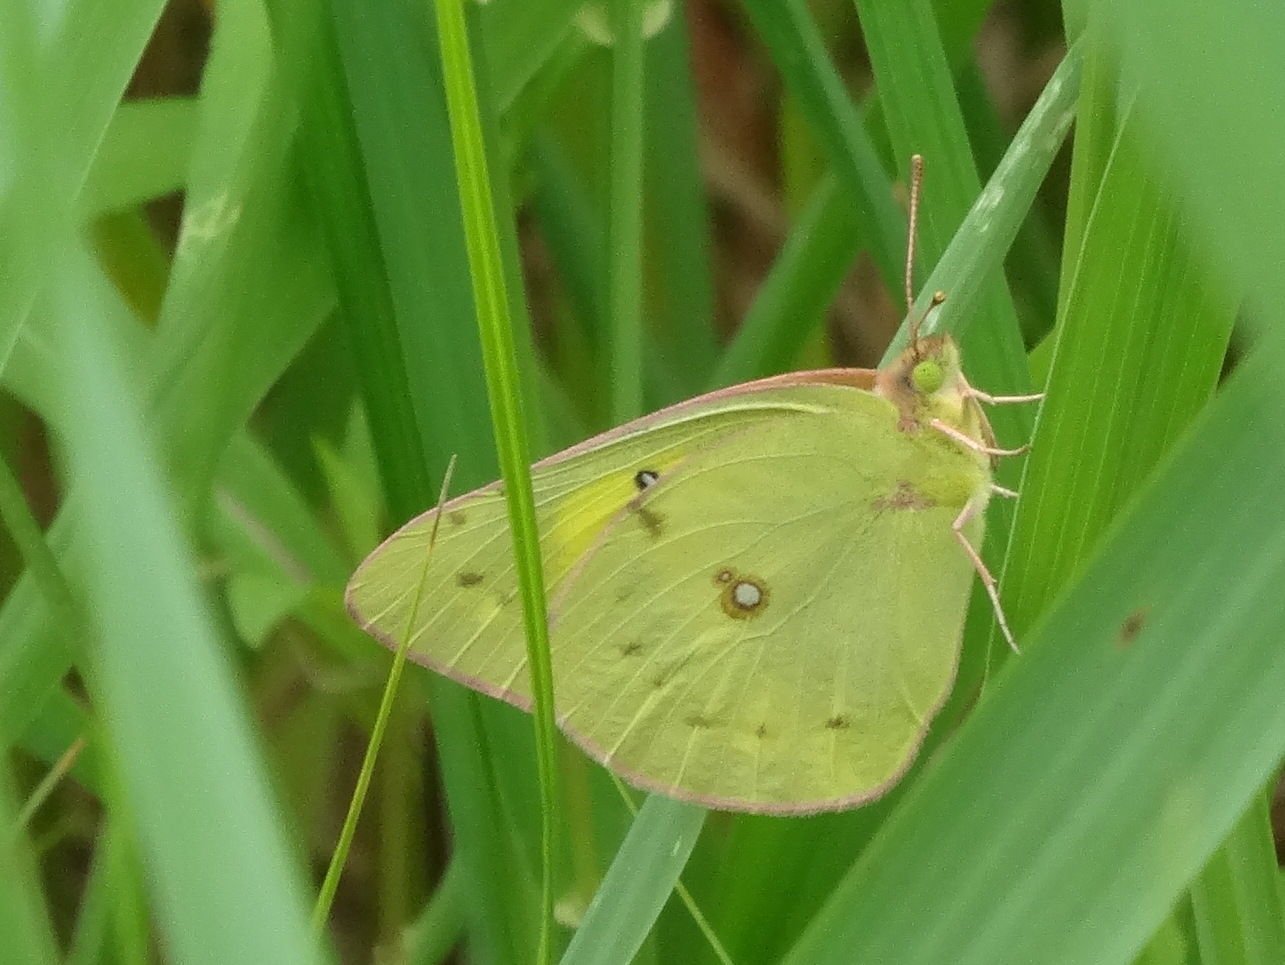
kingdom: Animalia
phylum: Arthropoda
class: Insecta
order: Lepidoptera
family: Pieridae
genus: Colias
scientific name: Colias eurytheme
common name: Alfalfa butterfly
